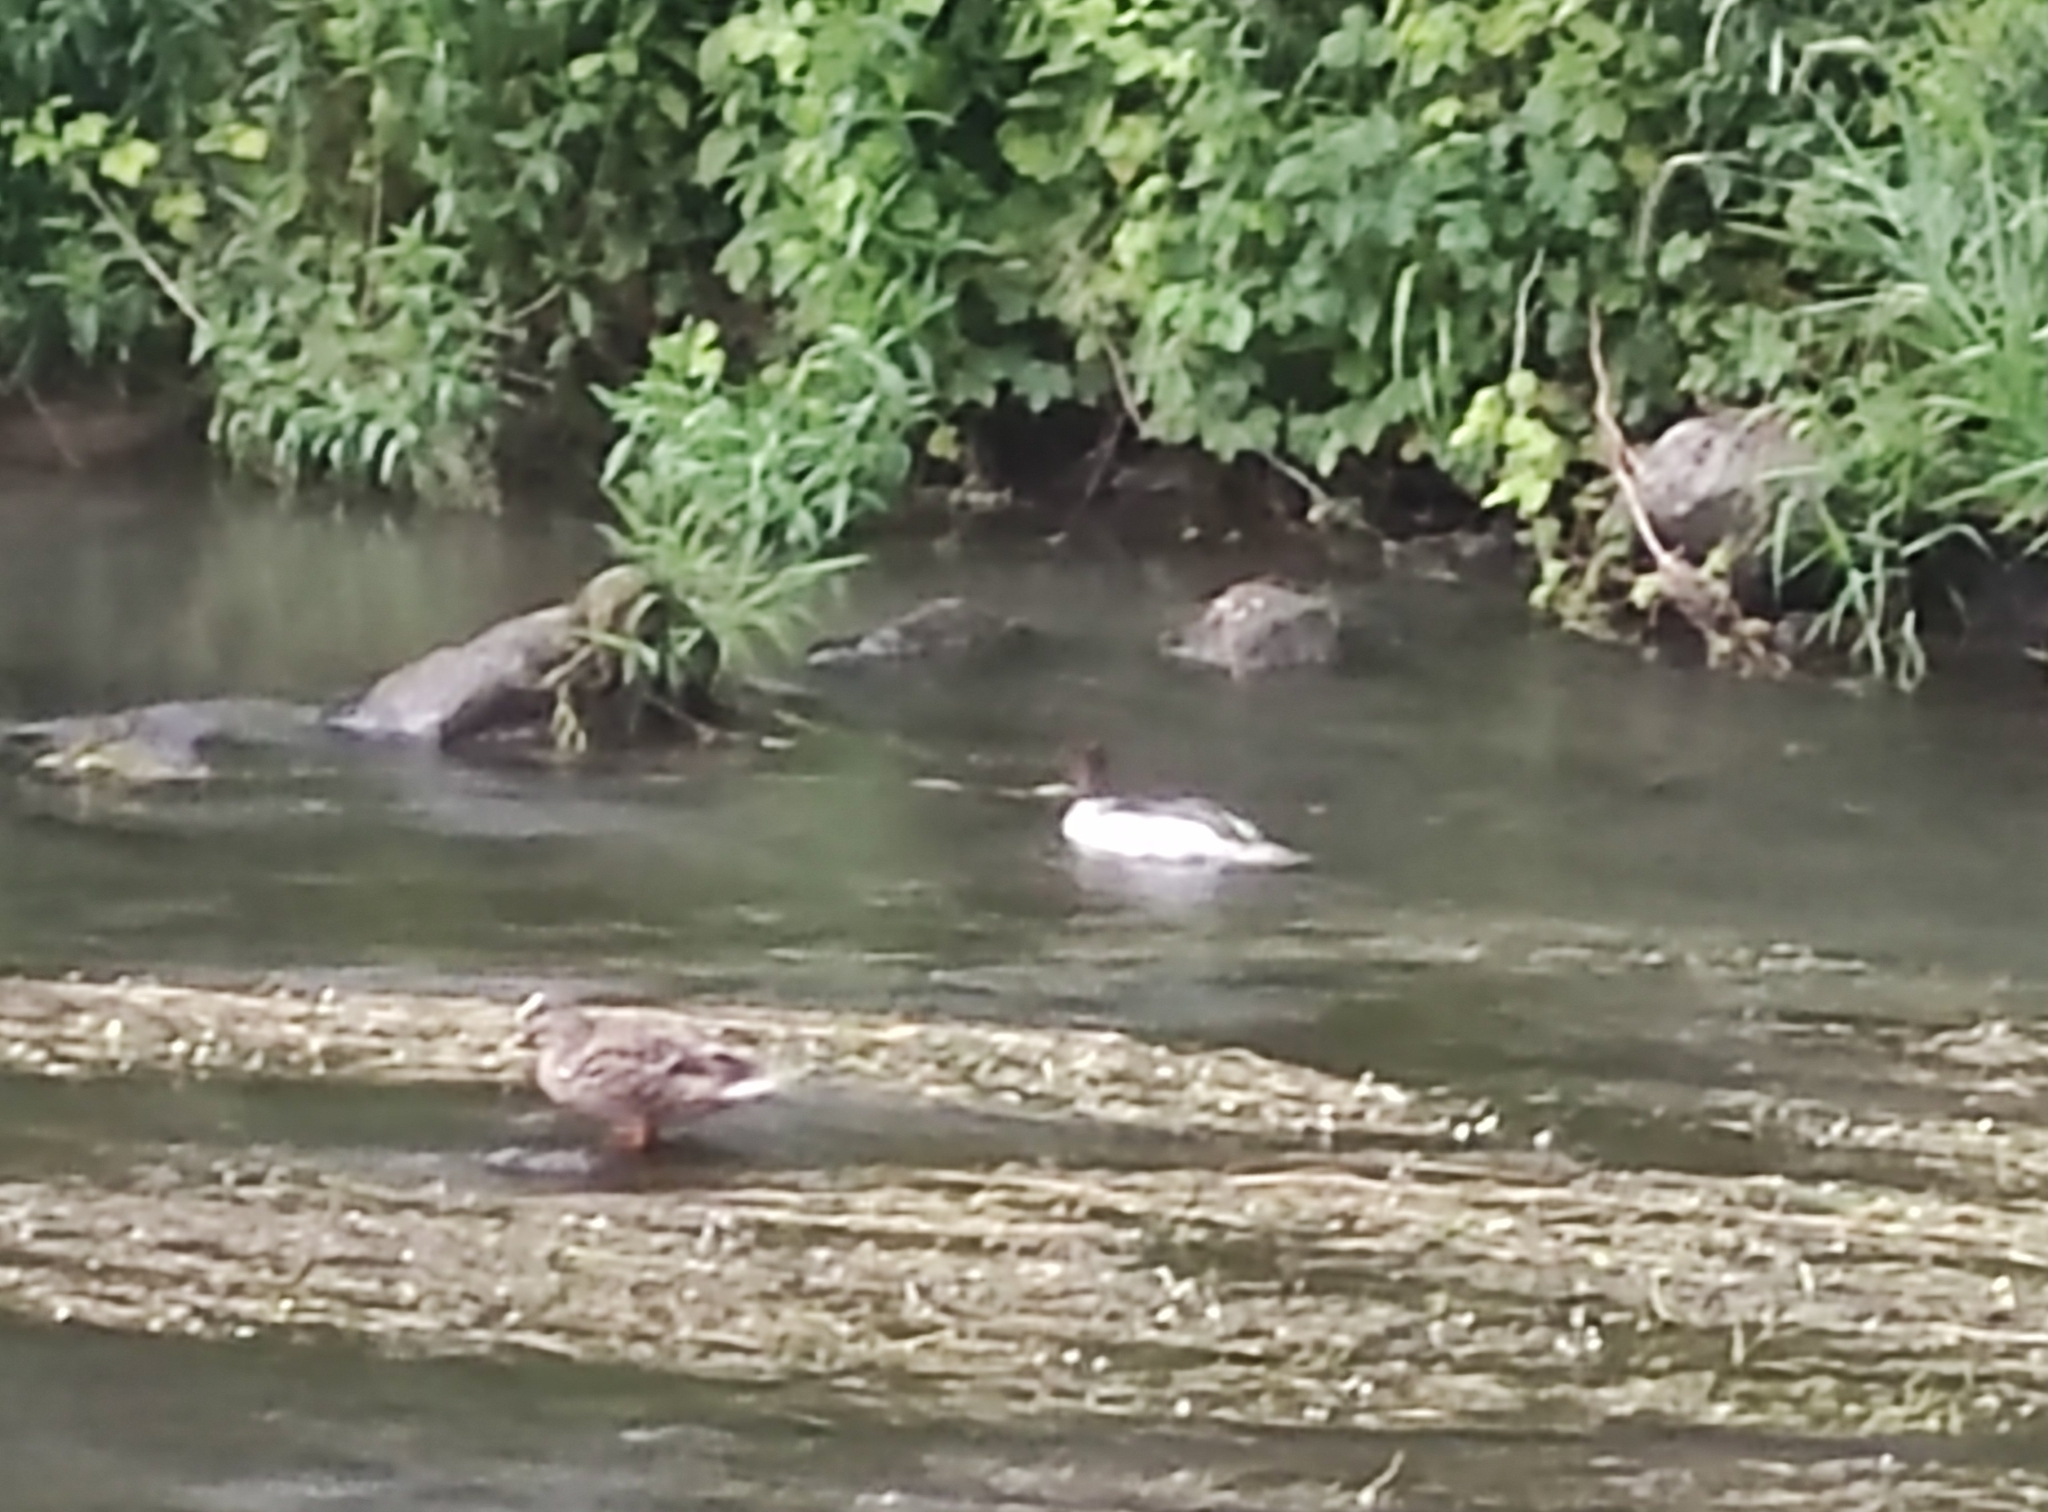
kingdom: Animalia
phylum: Chordata
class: Aves
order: Anseriformes
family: Anatidae
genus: Mergus
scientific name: Mergus merganser
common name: Common merganser
